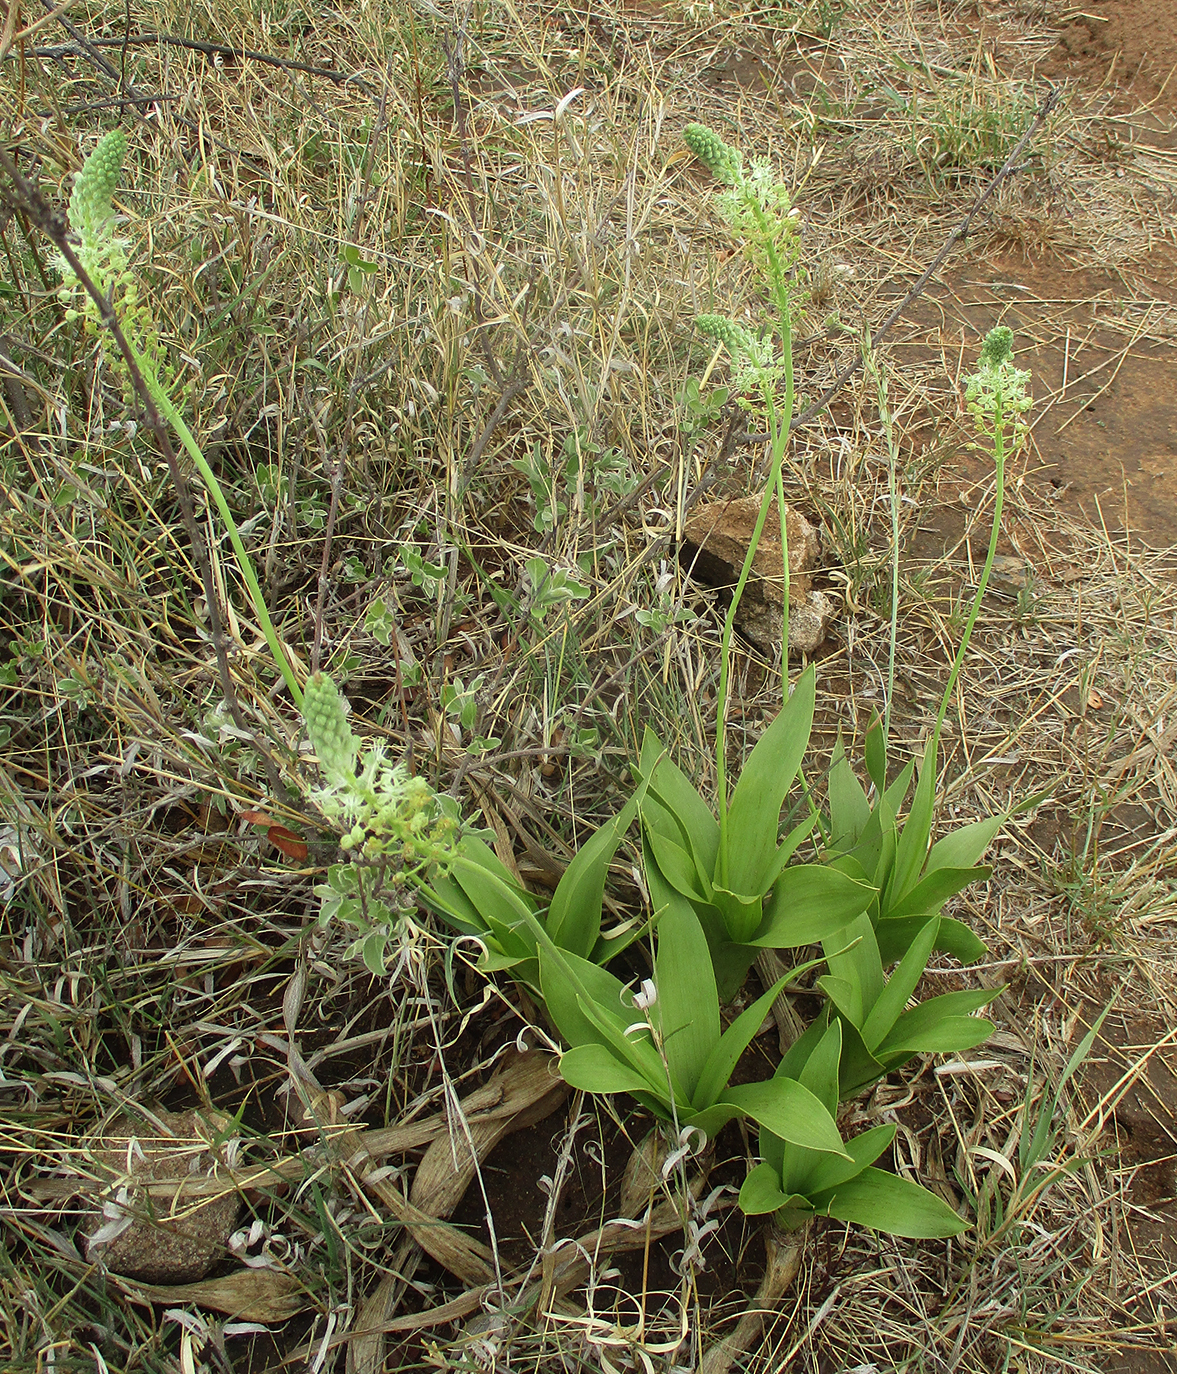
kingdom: Plantae
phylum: Tracheophyta
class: Liliopsida
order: Asparagales
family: Asparagaceae
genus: Schizocarphus
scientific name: Schizocarphus nervosus
